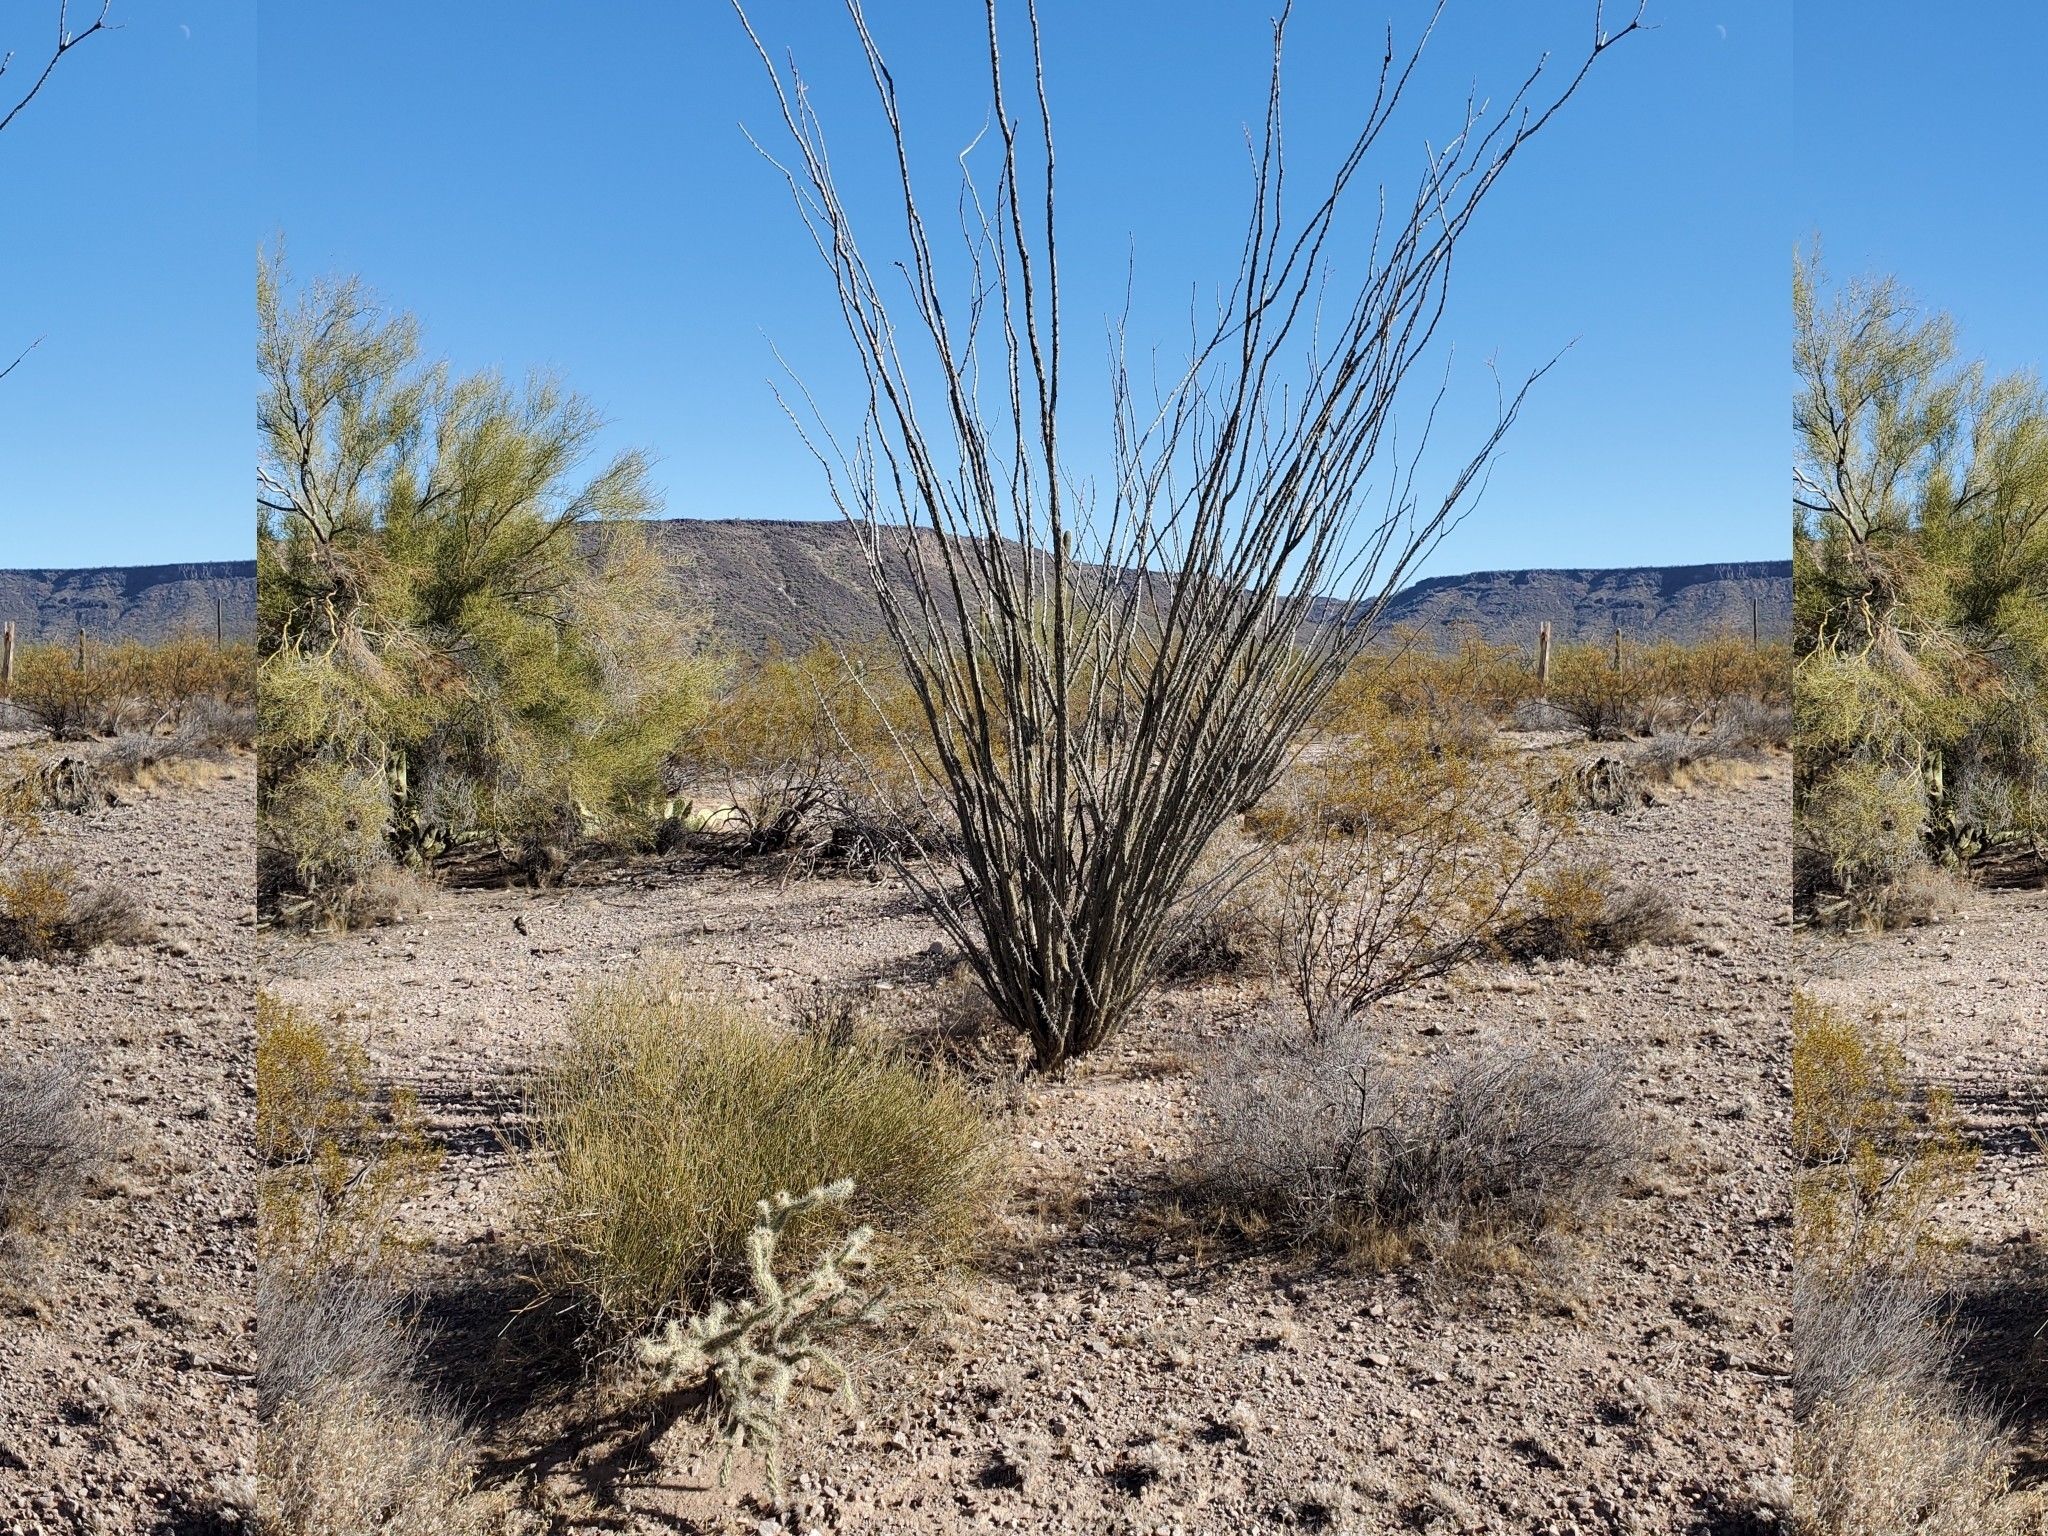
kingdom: Plantae
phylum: Tracheophyta
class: Magnoliopsida
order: Ericales
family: Fouquieriaceae
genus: Fouquieria
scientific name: Fouquieria splendens
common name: Vine-cactus
